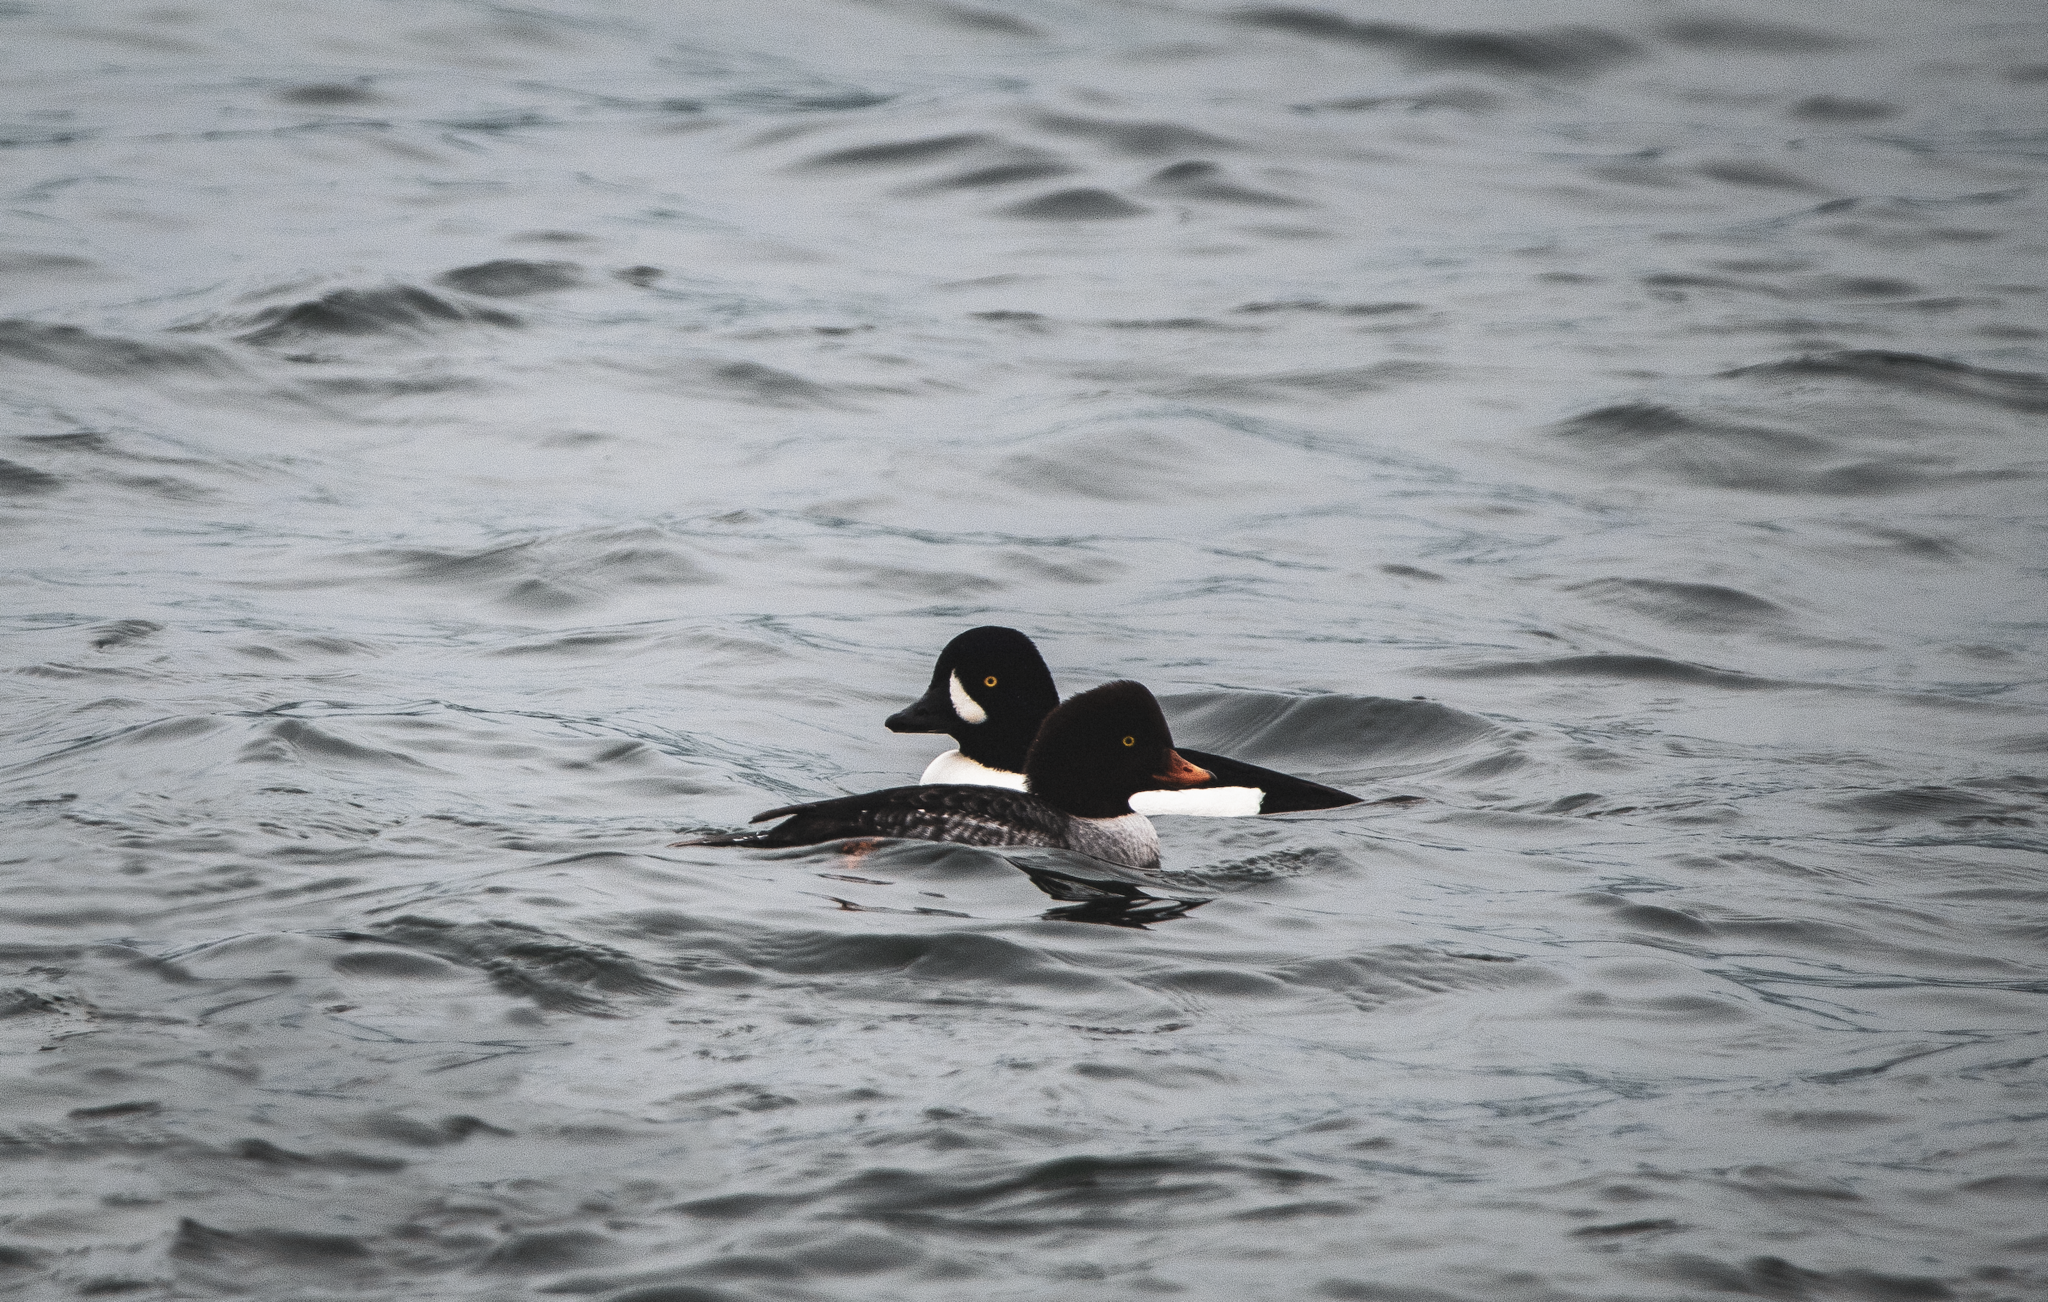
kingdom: Animalia
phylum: Chordata
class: Aves
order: Anseriformes
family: Anatidae
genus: Bucephala
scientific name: Bucephala islandica
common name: Barrow's goldeneye
